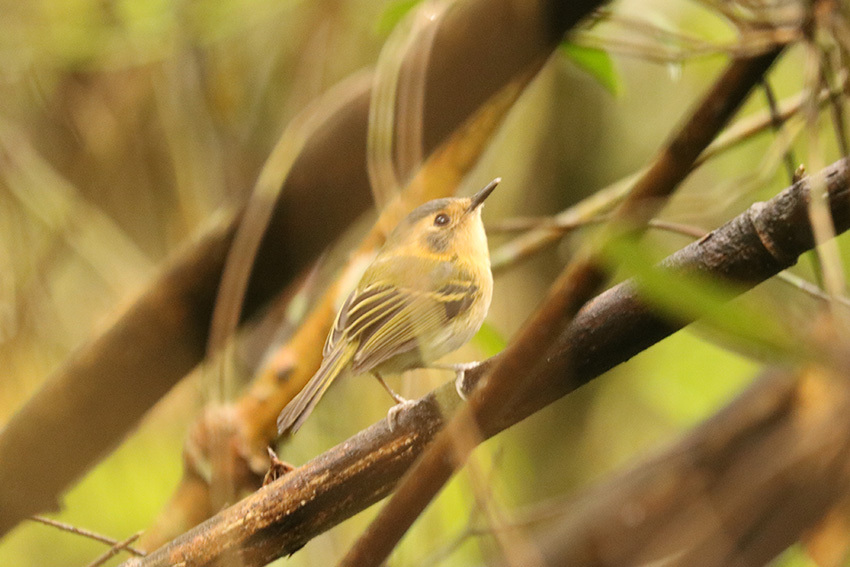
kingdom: Animalia
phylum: Chordata
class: Aves
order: Passeriformes
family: Tyrannidae
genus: Poecilotriccus
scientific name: Poecilotriccus plumbeiceps
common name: Ochre-faced tody-flycatcher
